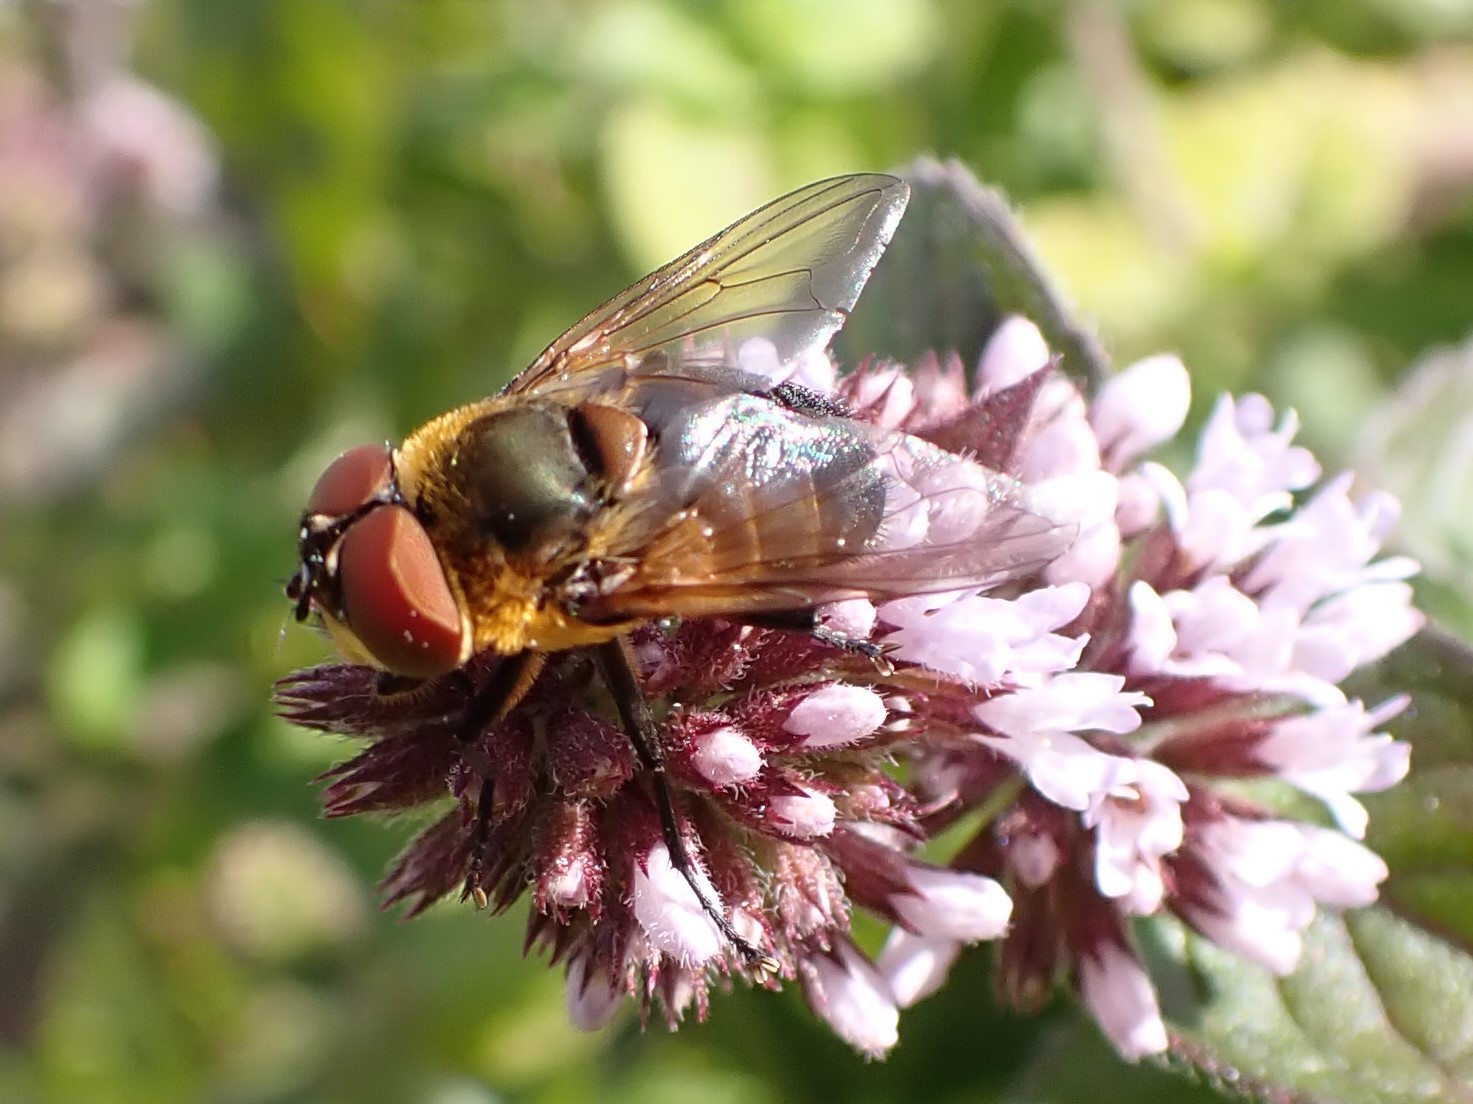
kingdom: Animalia
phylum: Arthropoda
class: Insecta
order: Diptera
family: Tachinidae
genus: Phasia
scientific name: Phasia hemiptera
